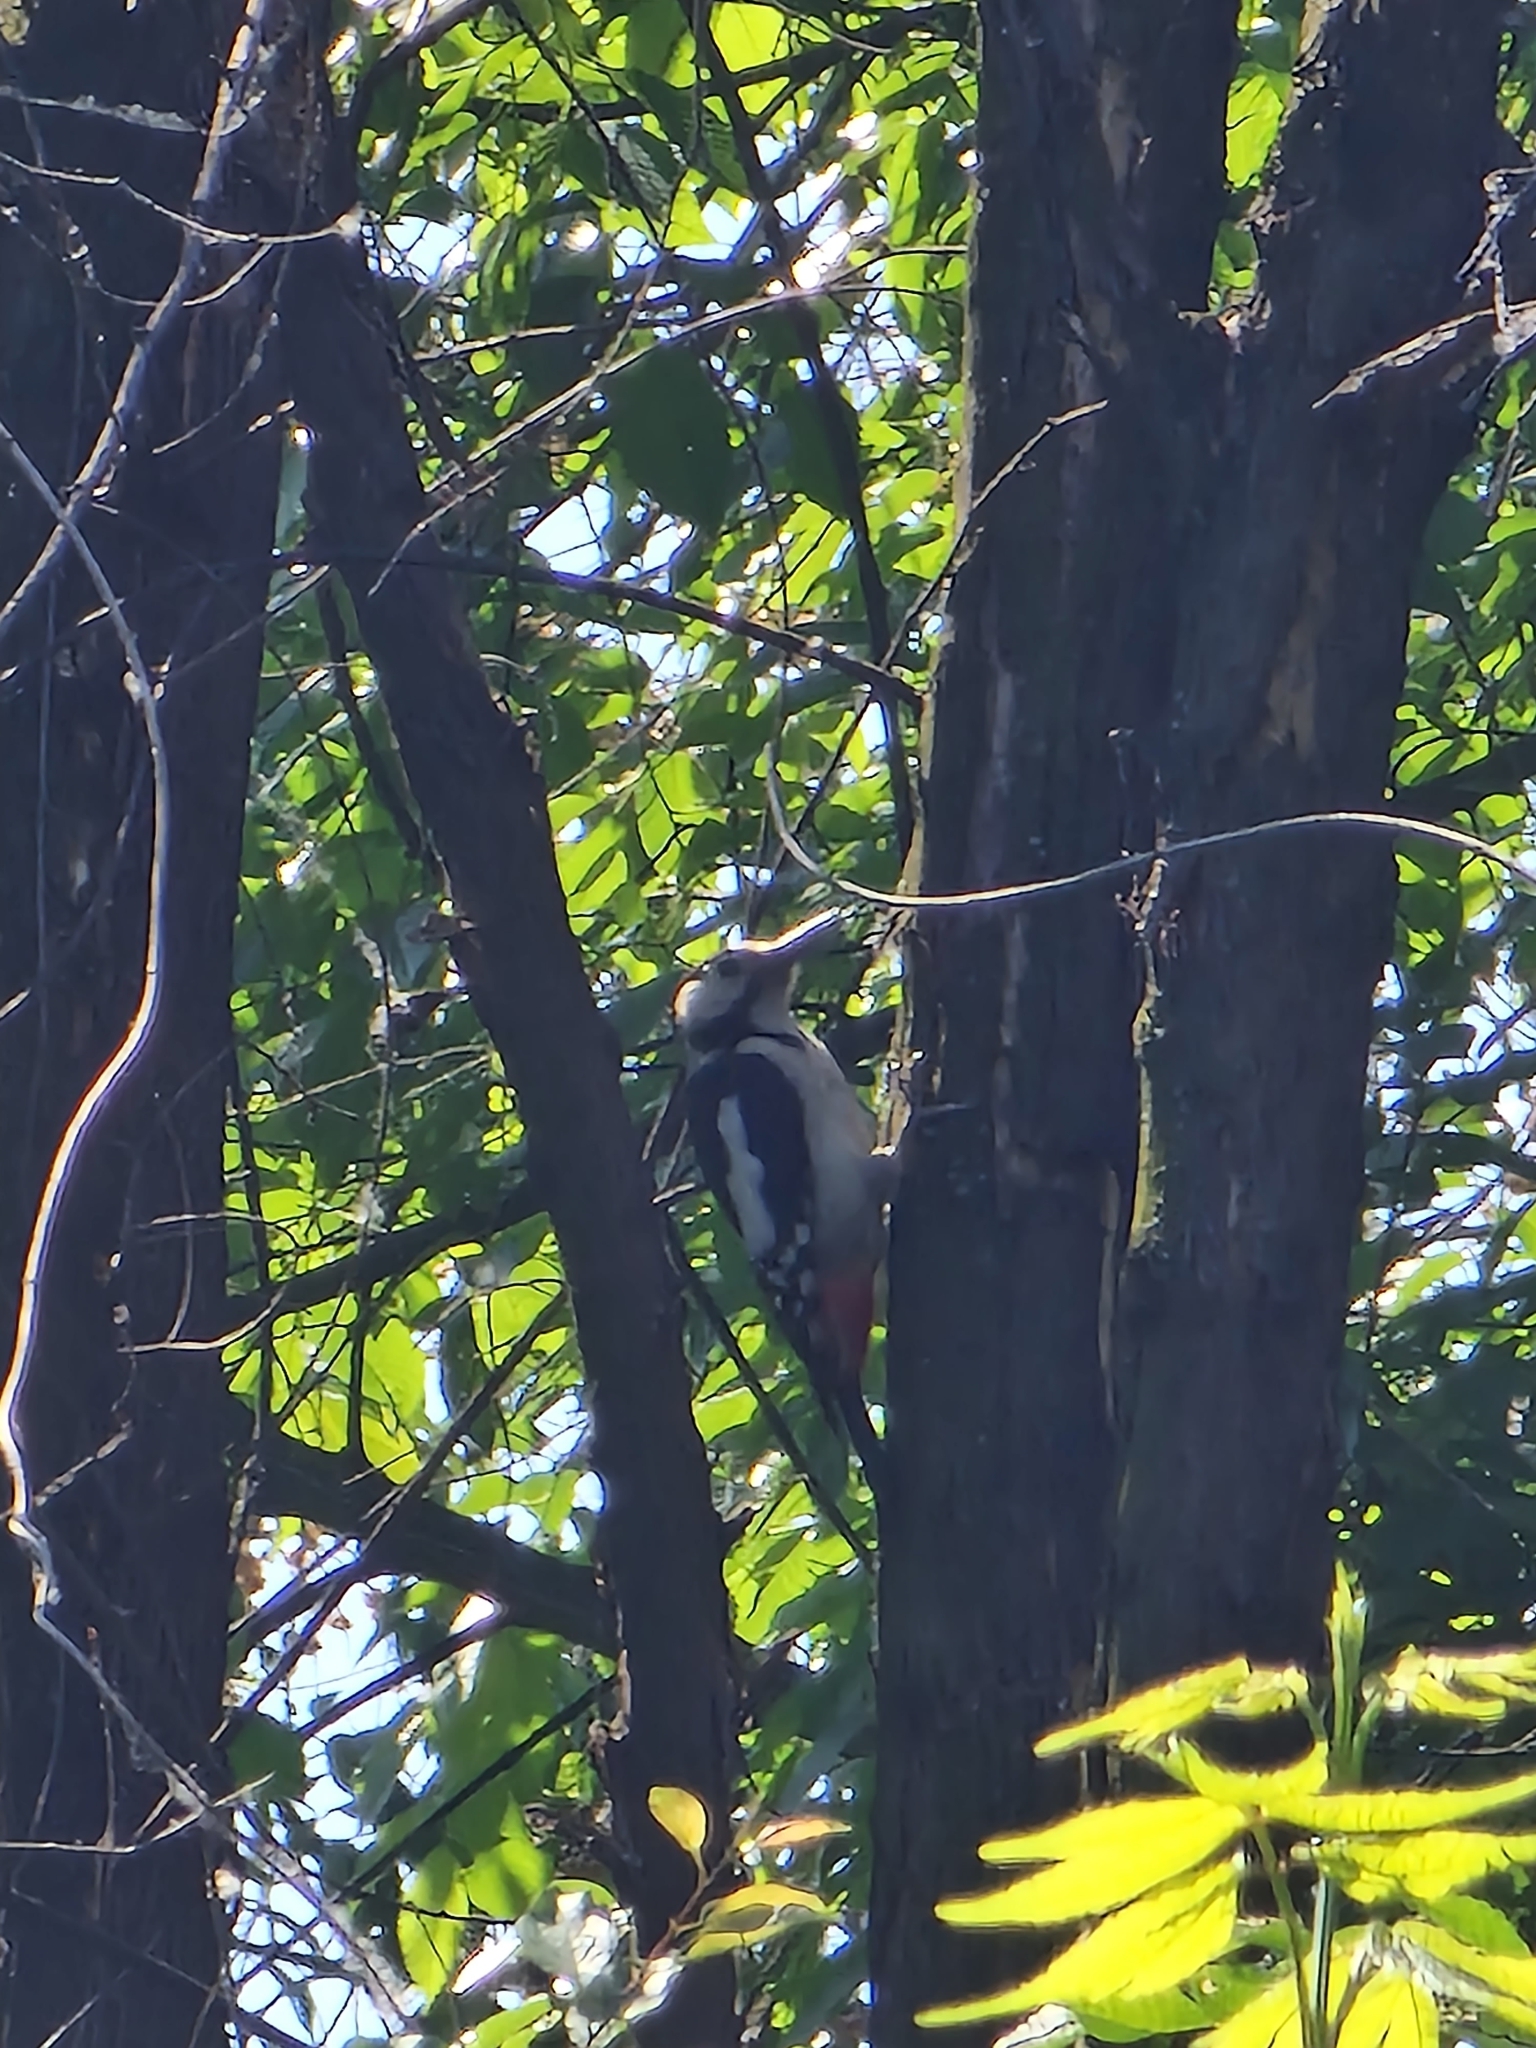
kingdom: Animalia
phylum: Chordata
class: Aves
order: Piciformes
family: Picidae
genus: Dendrocopos
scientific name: Dendrocopos major
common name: Great spotted woodpecker
